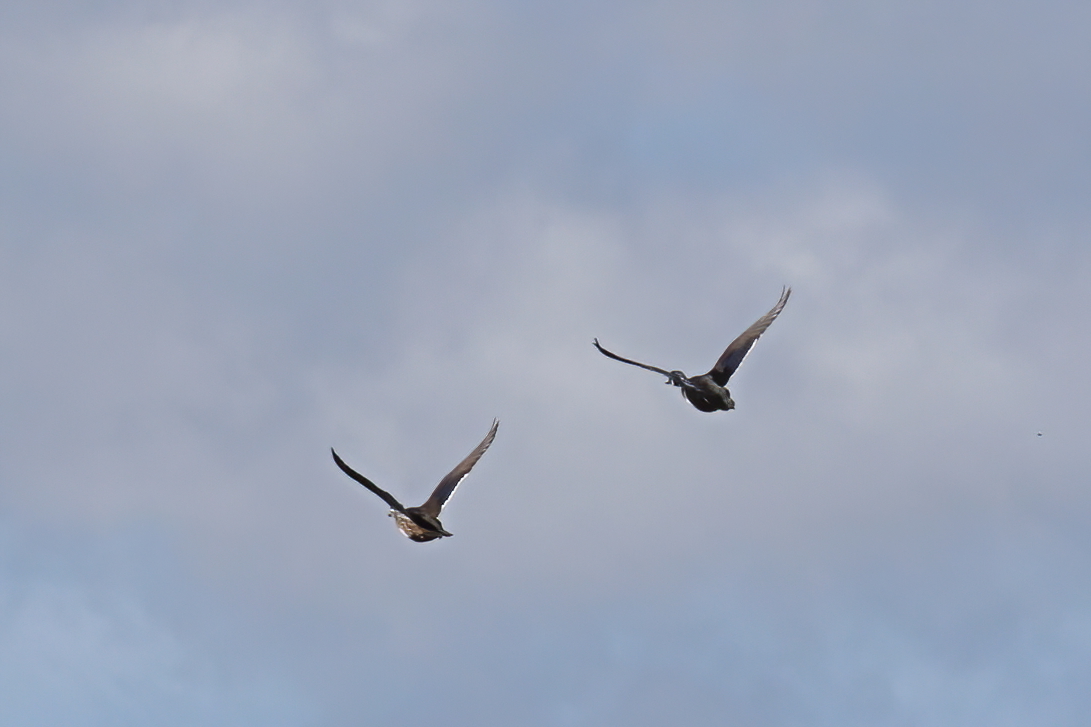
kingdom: Animalia
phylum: Chordata
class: Aves
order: Anseriformes
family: Anatidae
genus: Aix
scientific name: Aix sponsa
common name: Wood duck
